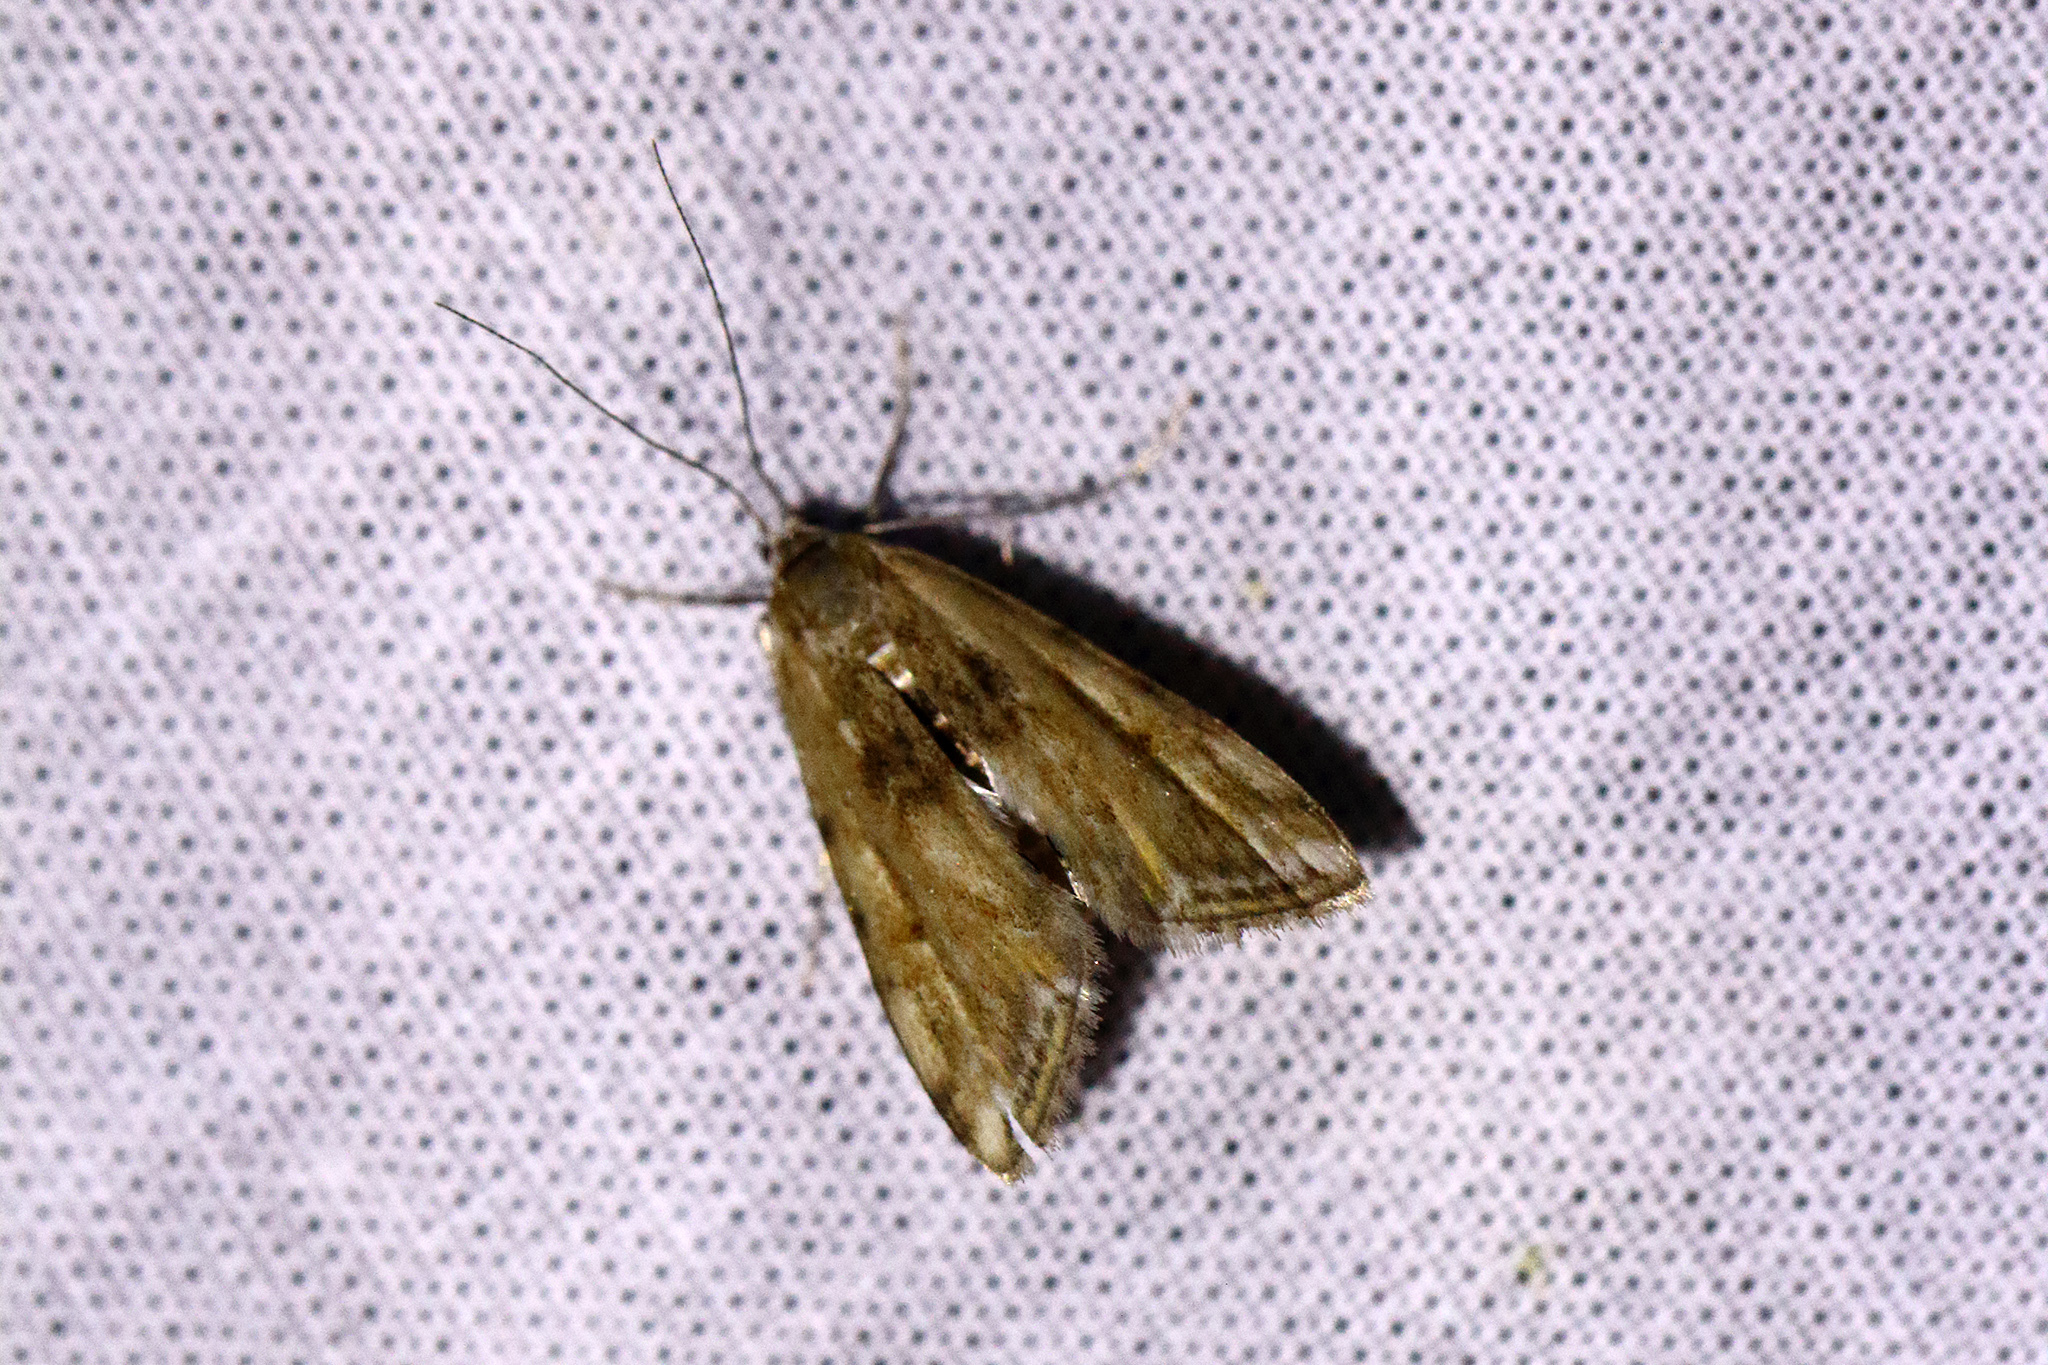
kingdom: Animalia
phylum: Arthropoda
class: Insecta
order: Lepidoptera
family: Crambidae
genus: Cataclysta
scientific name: Cataclysta lemnata
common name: Small china-mark
